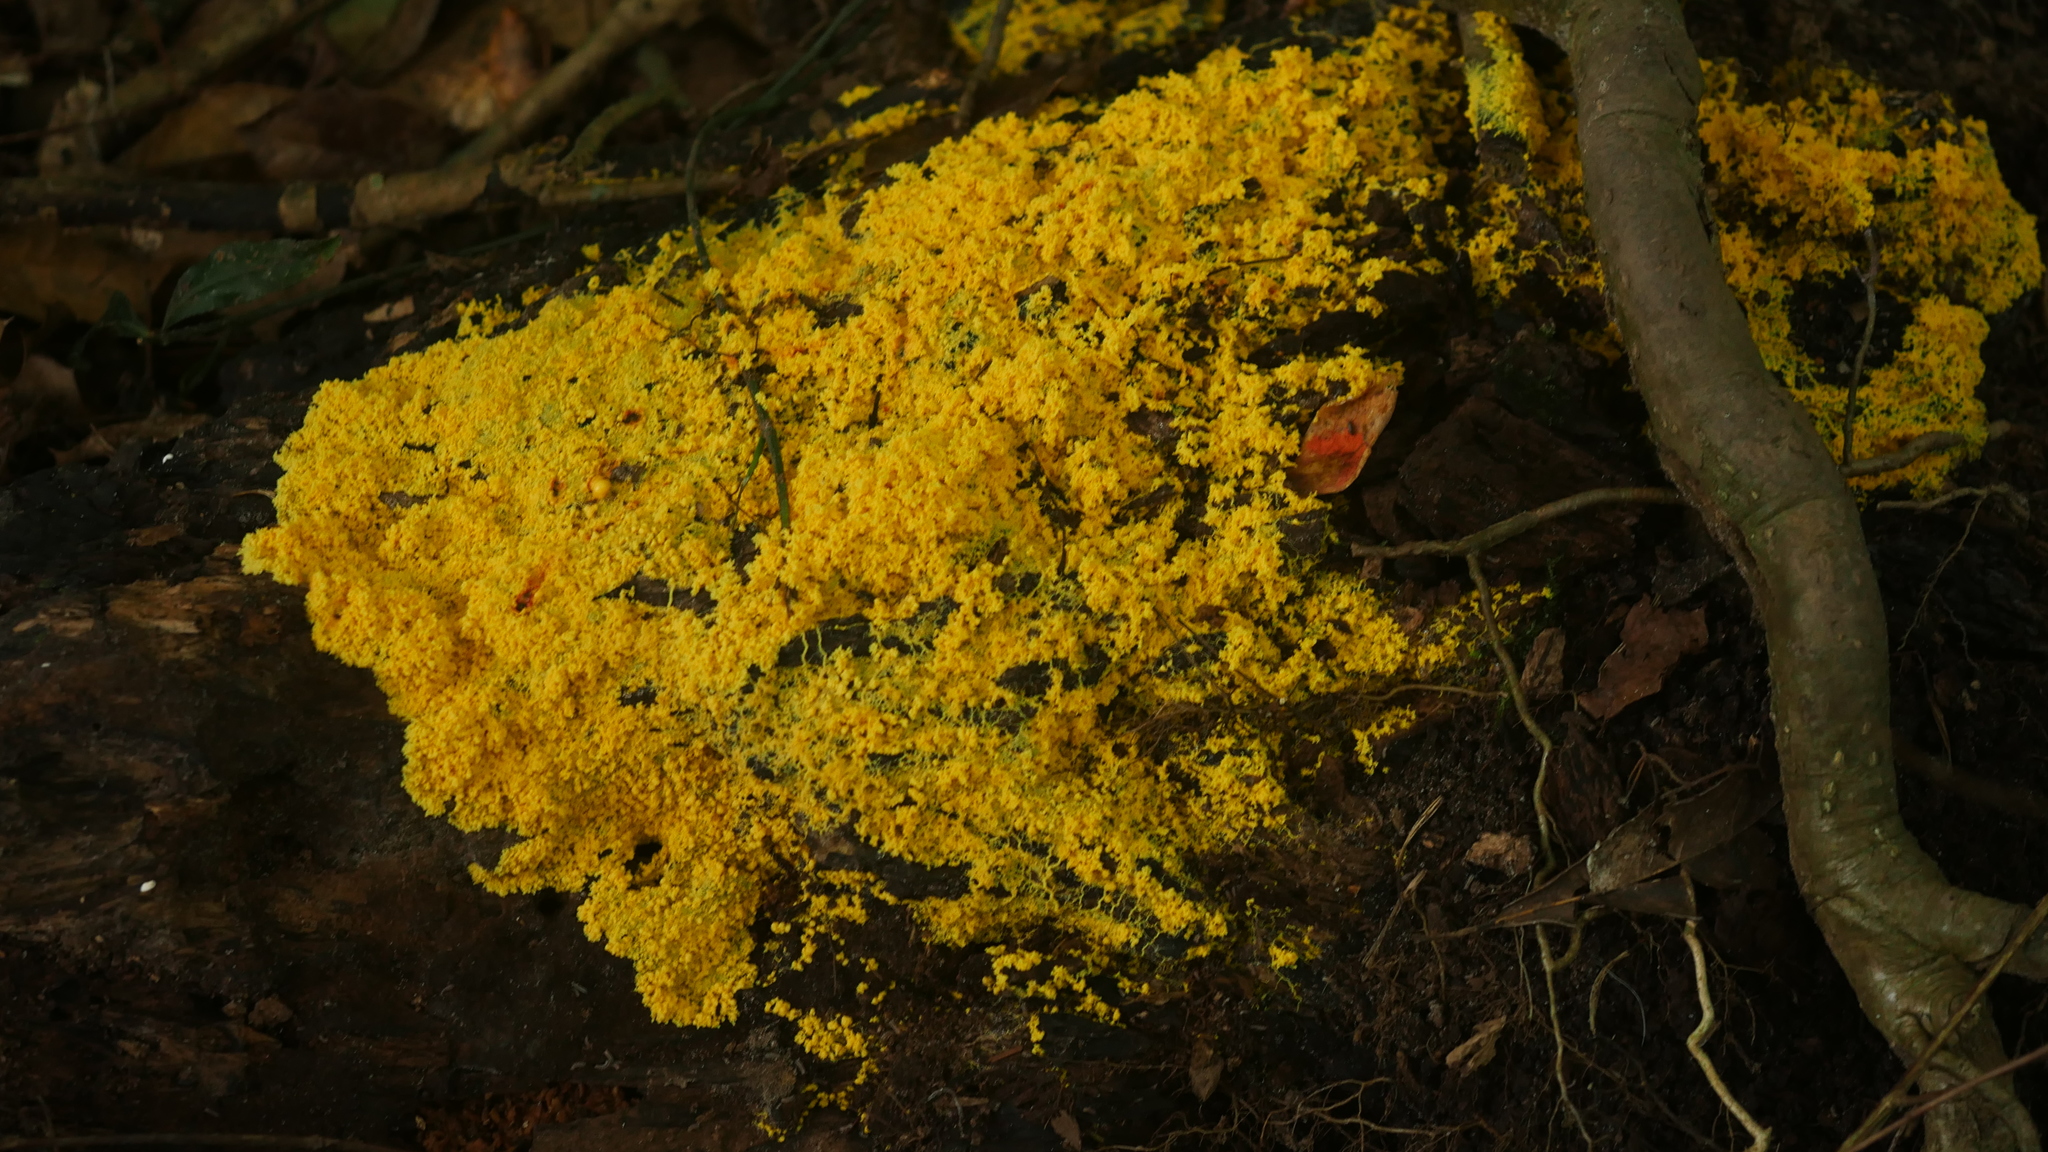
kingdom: Protozoa
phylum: Mycetozoa
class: Myxomycetes
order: Physarales
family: Physaraceae
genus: Fuligo
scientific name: Fuligo septica
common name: Dog vomit slime mold
